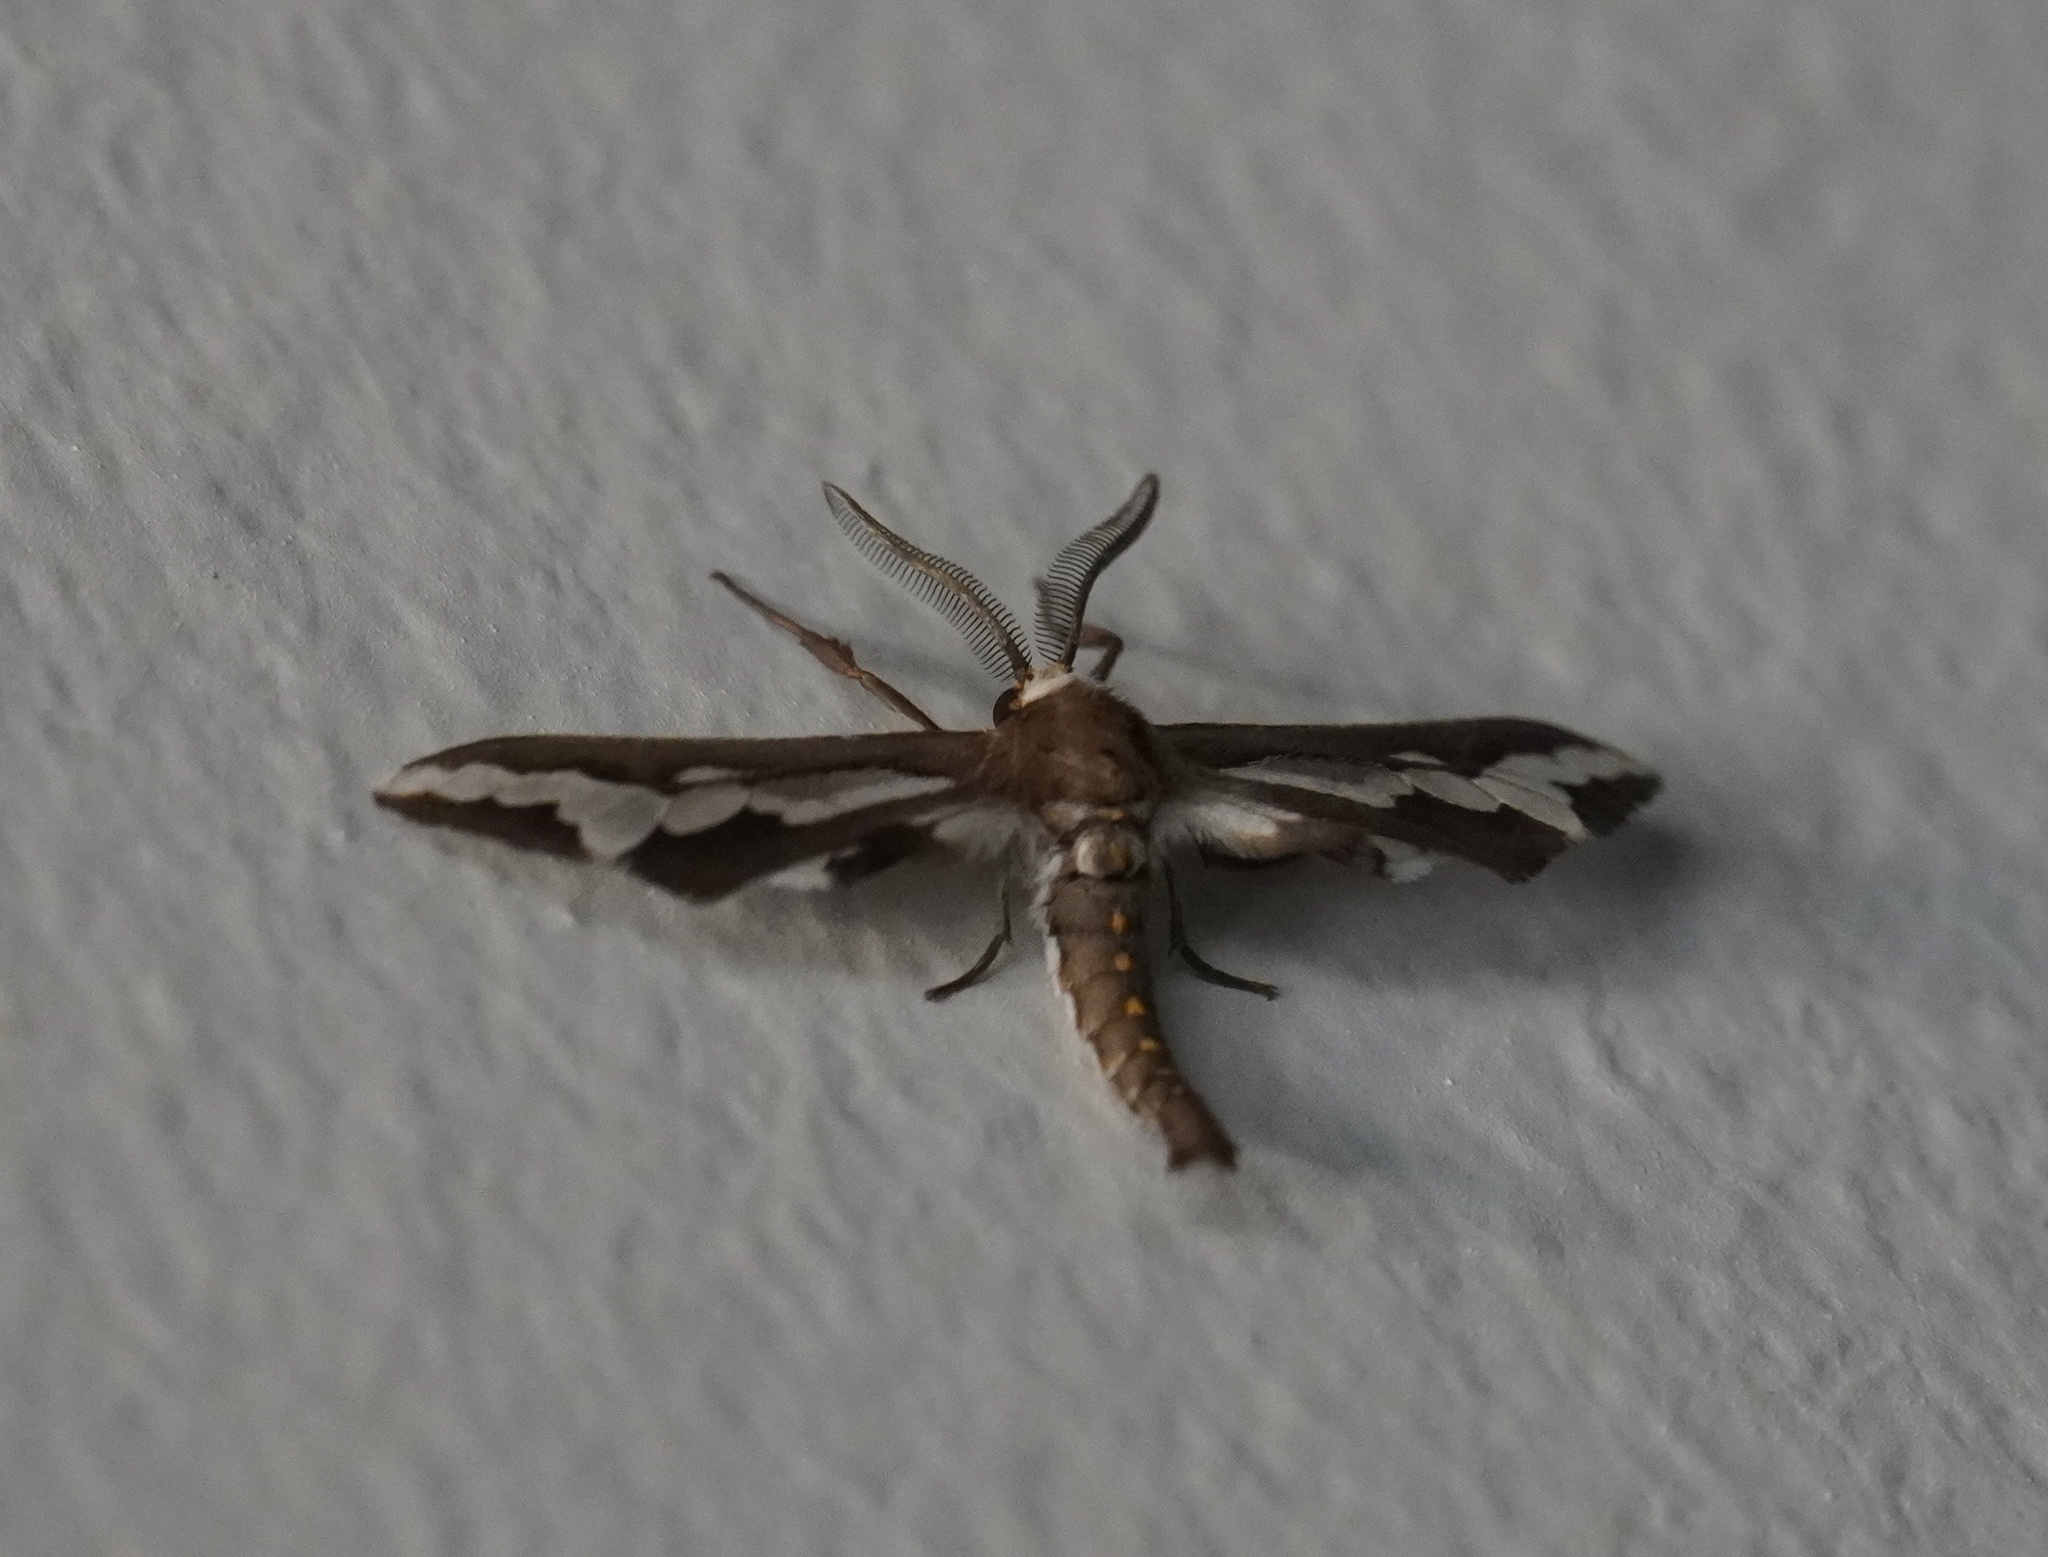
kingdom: Animalia
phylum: Arthropoda
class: Insecta
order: Lepidoptera
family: Erebidae
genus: Thyretes
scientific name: Thyretes caffra
